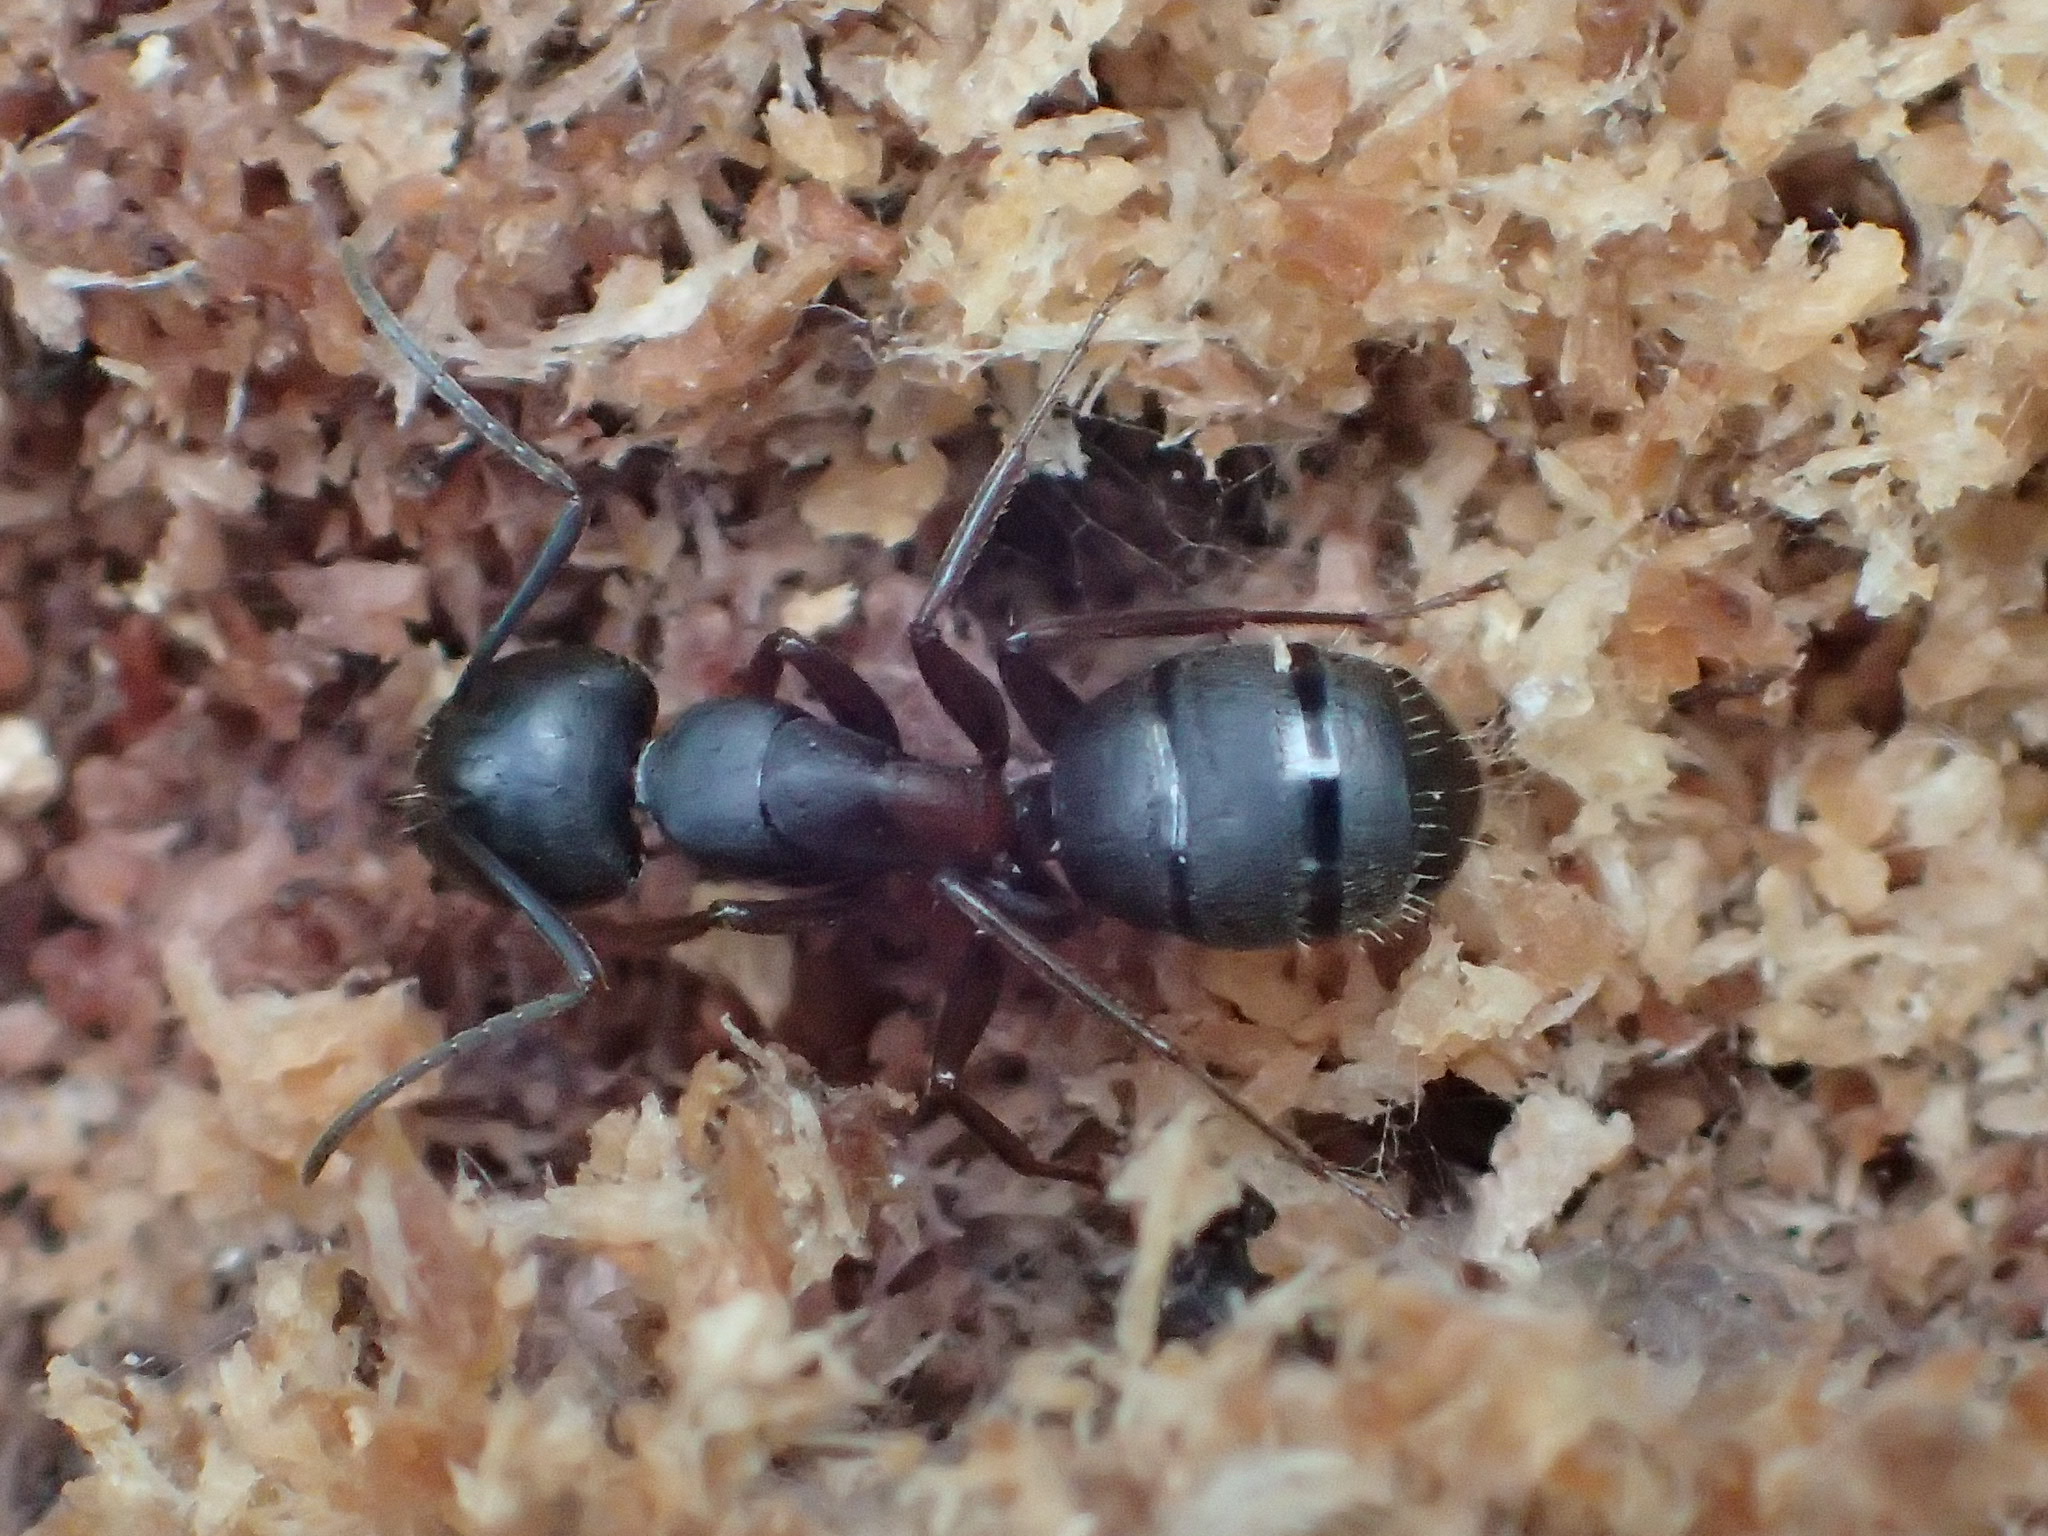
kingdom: Animalia
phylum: Arthropoda
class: Insecta
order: Hymenoptera
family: Formicidae
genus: Camponotus
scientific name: Camponotus herculeanus
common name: Hercules ant
